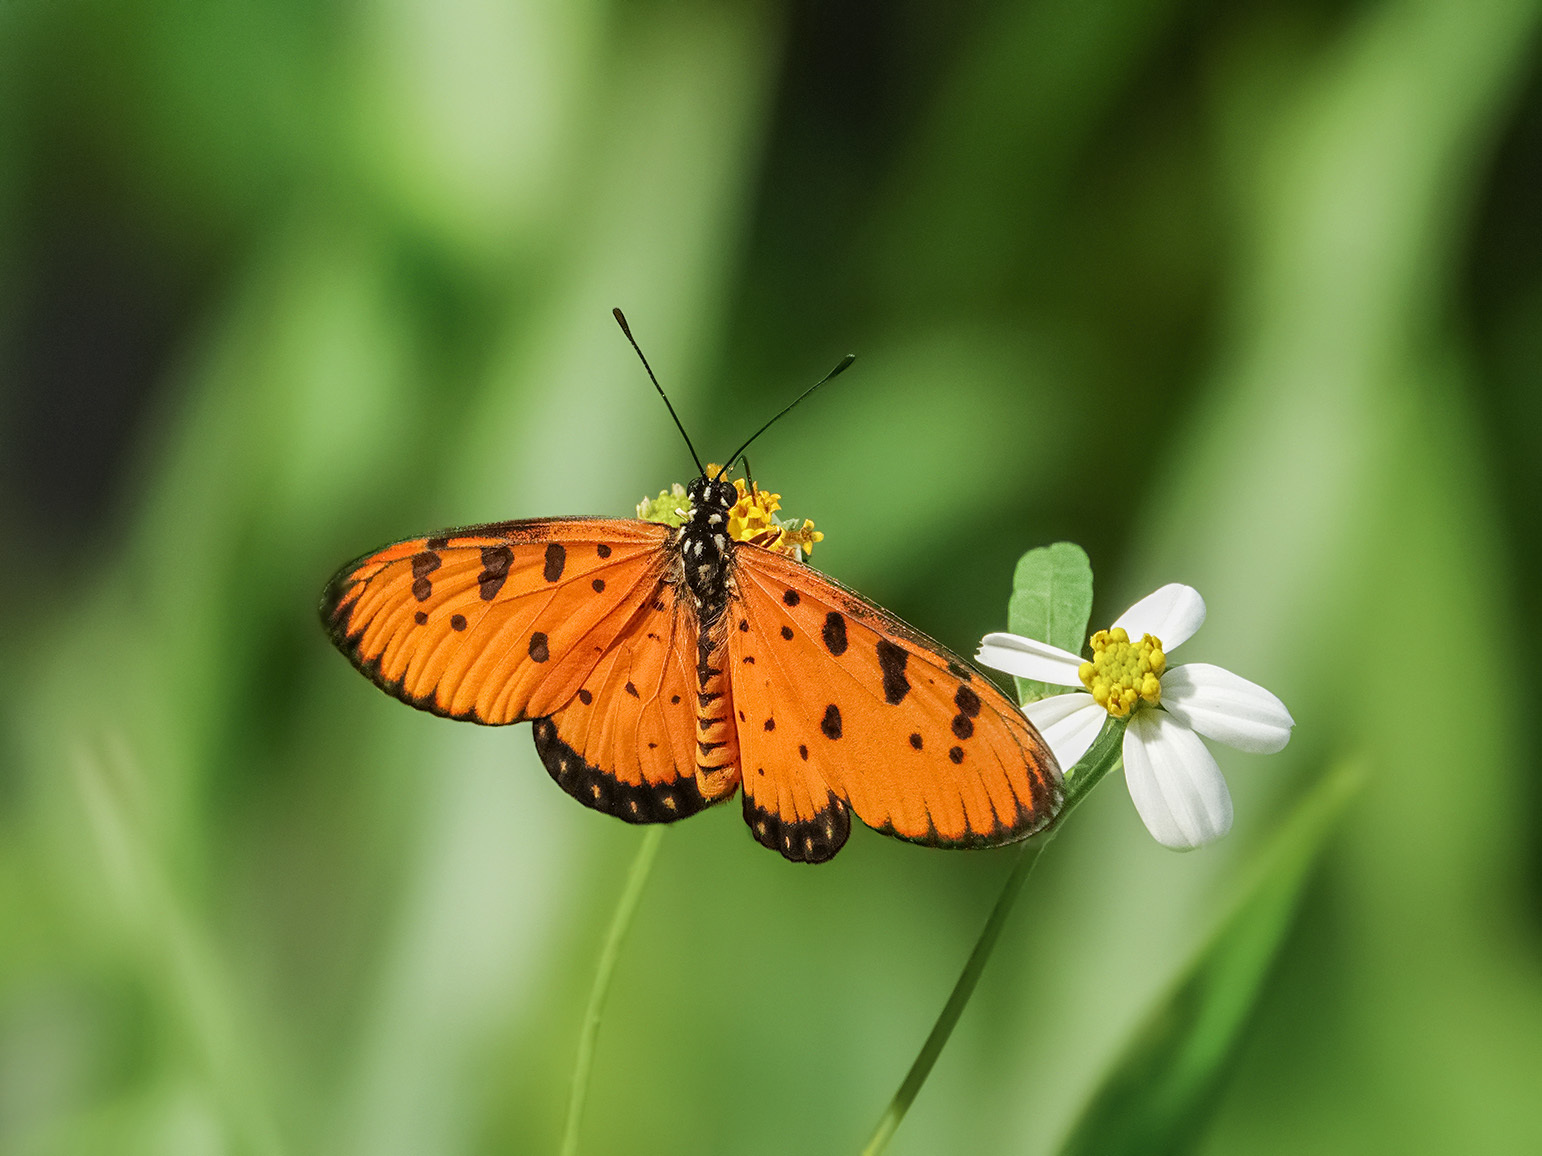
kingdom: Animalia
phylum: Arthropoda
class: Insecta
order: Lepidoptera
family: Nymphalidae
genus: Acraea
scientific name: Acraea terpsicore
